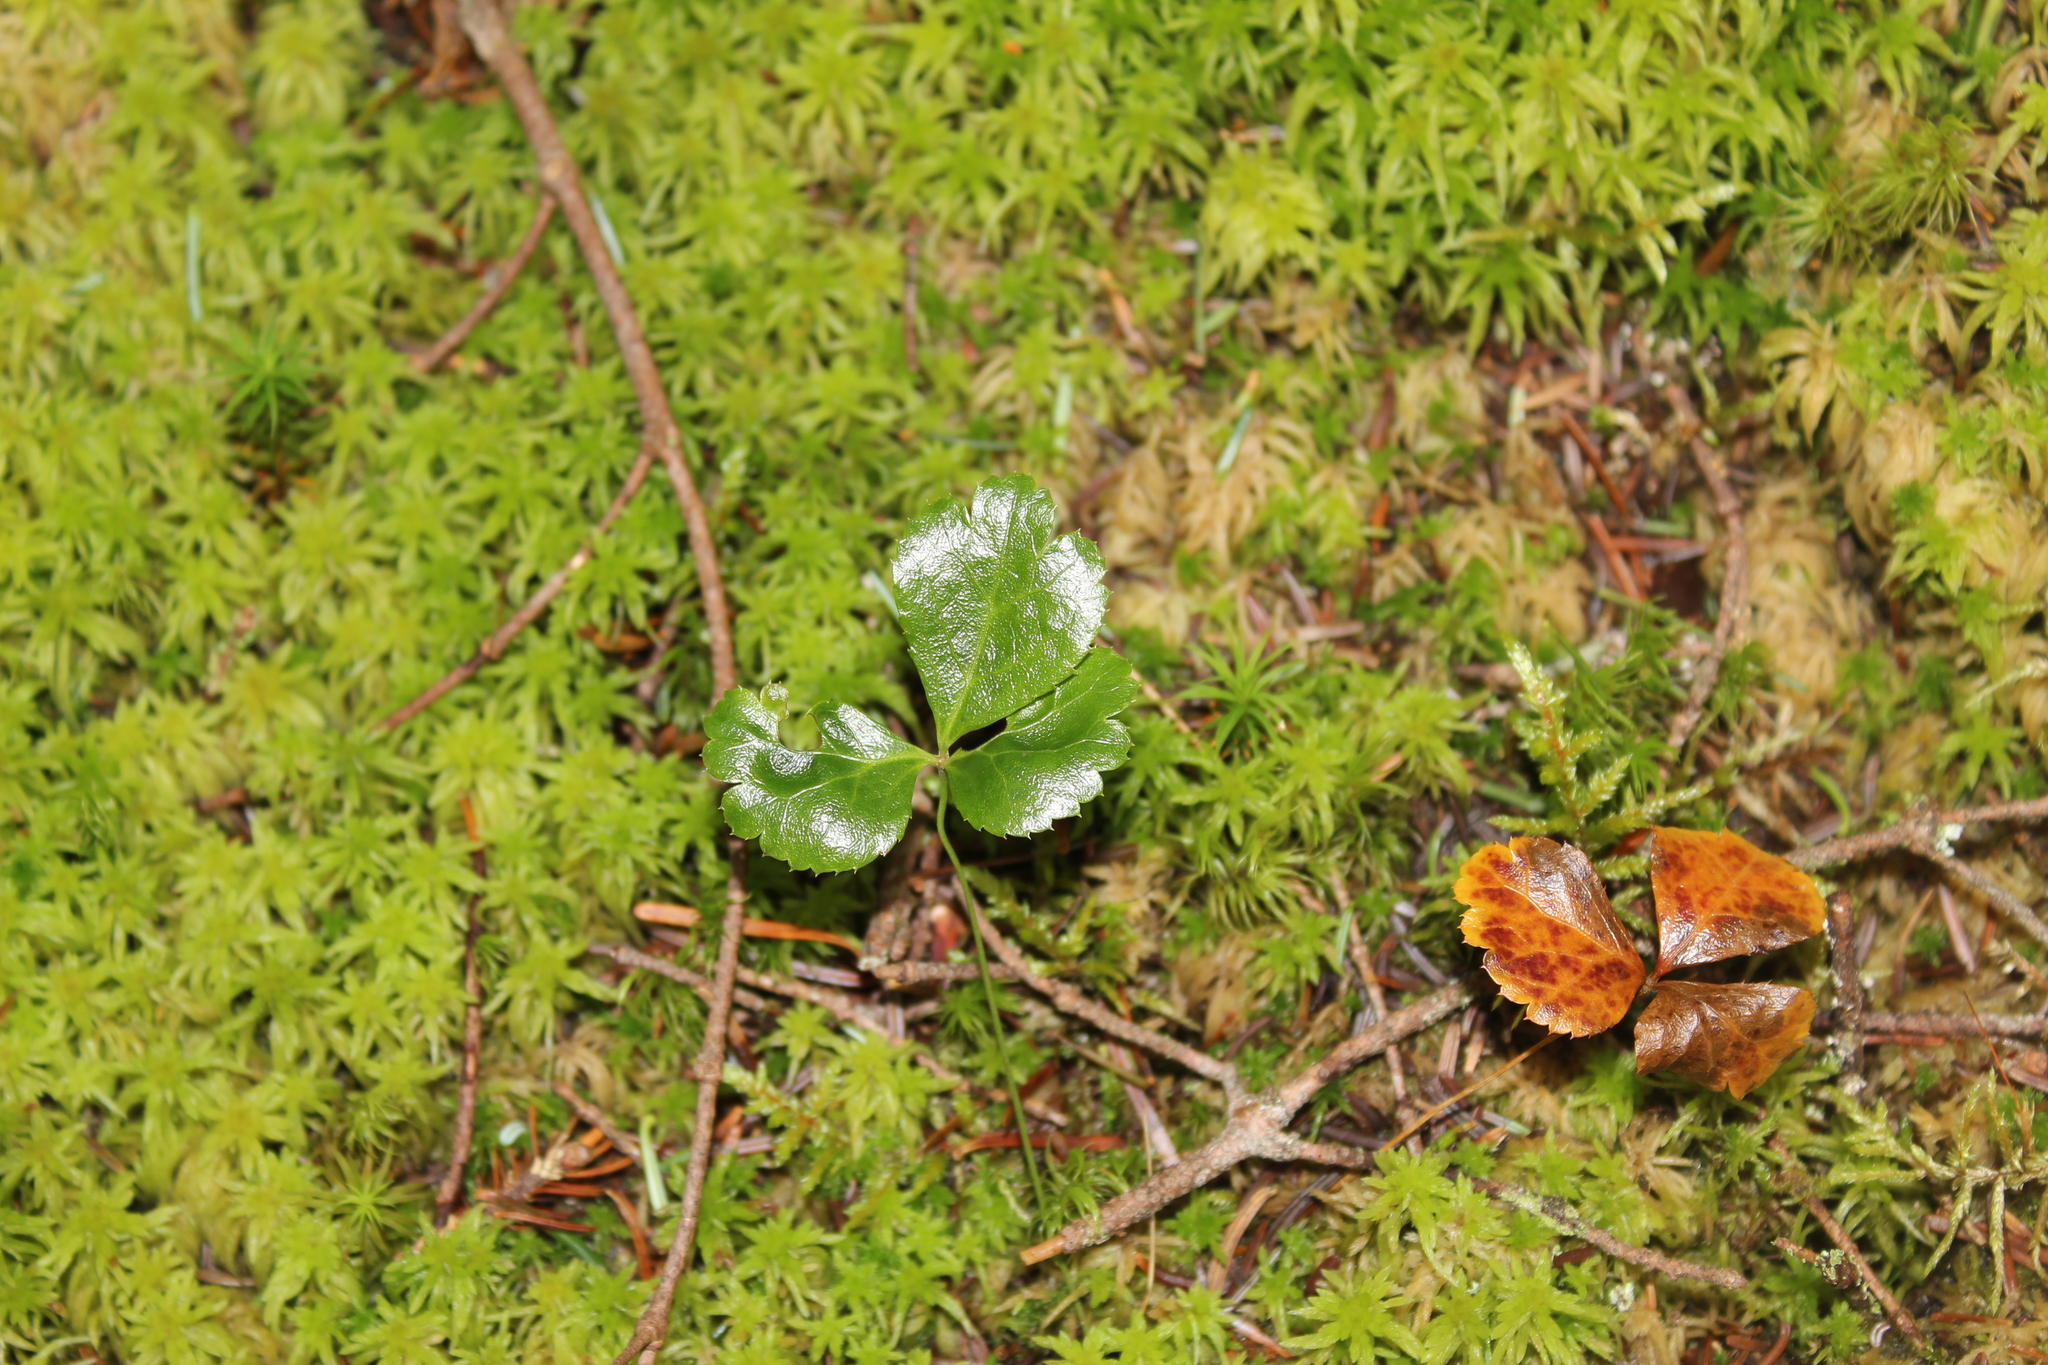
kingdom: Plantae
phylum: Tracheophyta
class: Magnoliopsida
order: Ranunculales
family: Ranunculaceae
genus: Coptis
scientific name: Coptis trifolia
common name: Canker-root
